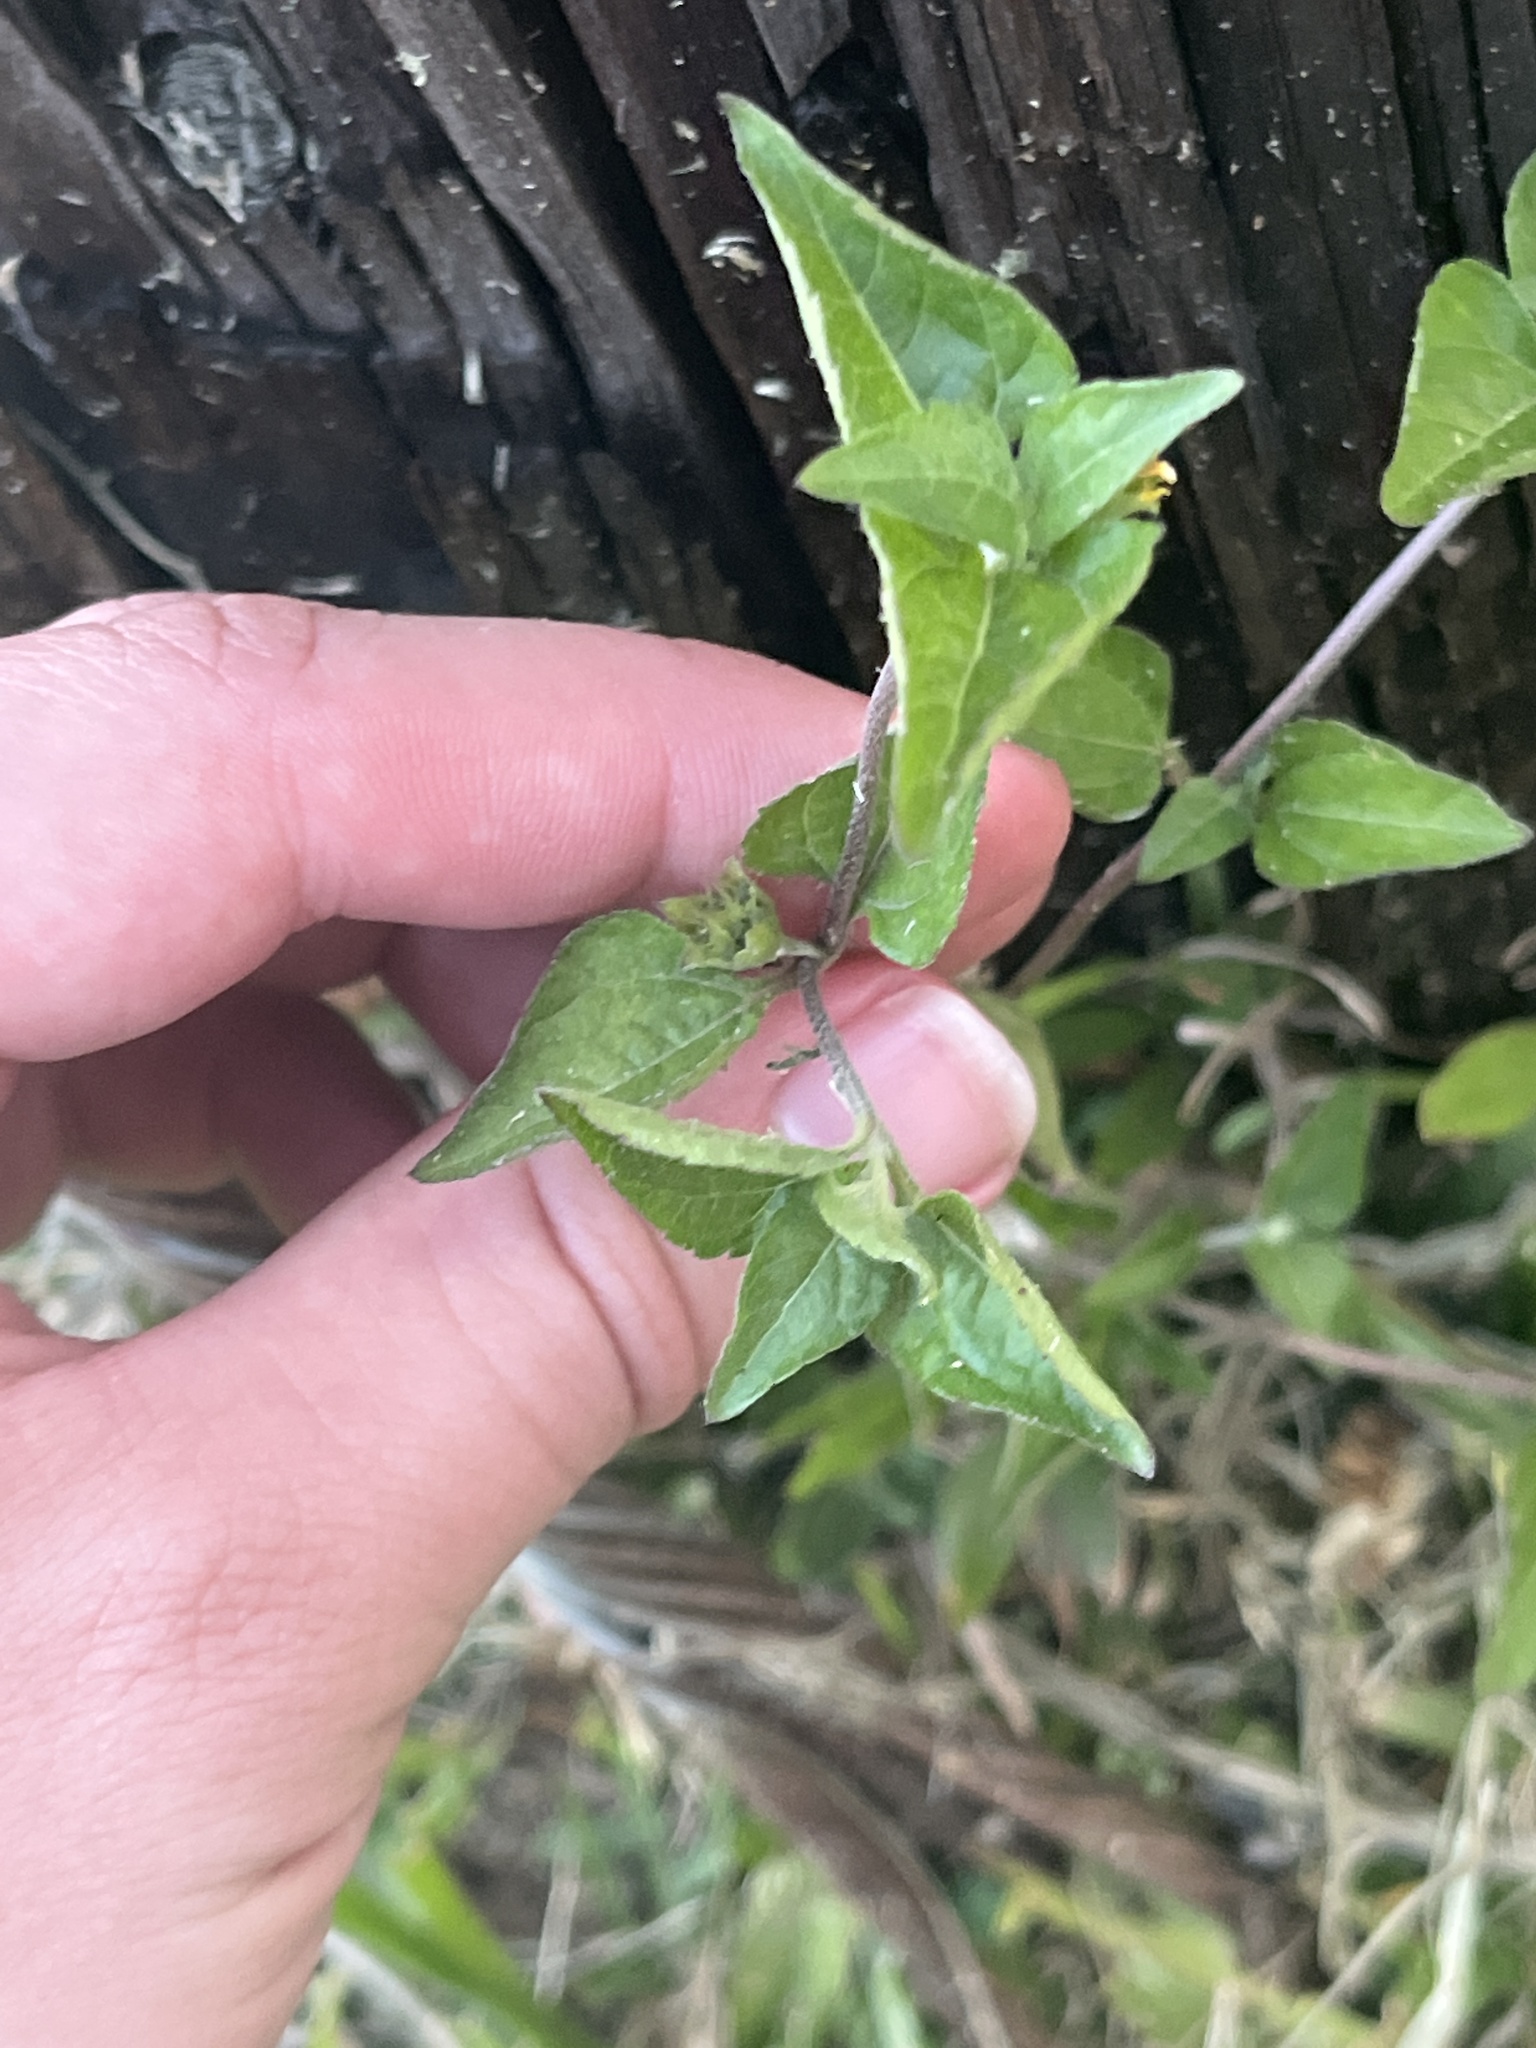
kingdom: Plantae
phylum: Tracheophyta
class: Magnoliopsida
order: Asterales
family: Asteraceae
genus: Calyptocarpus
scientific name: Calyptocarpus vialis
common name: Straggler daisy
